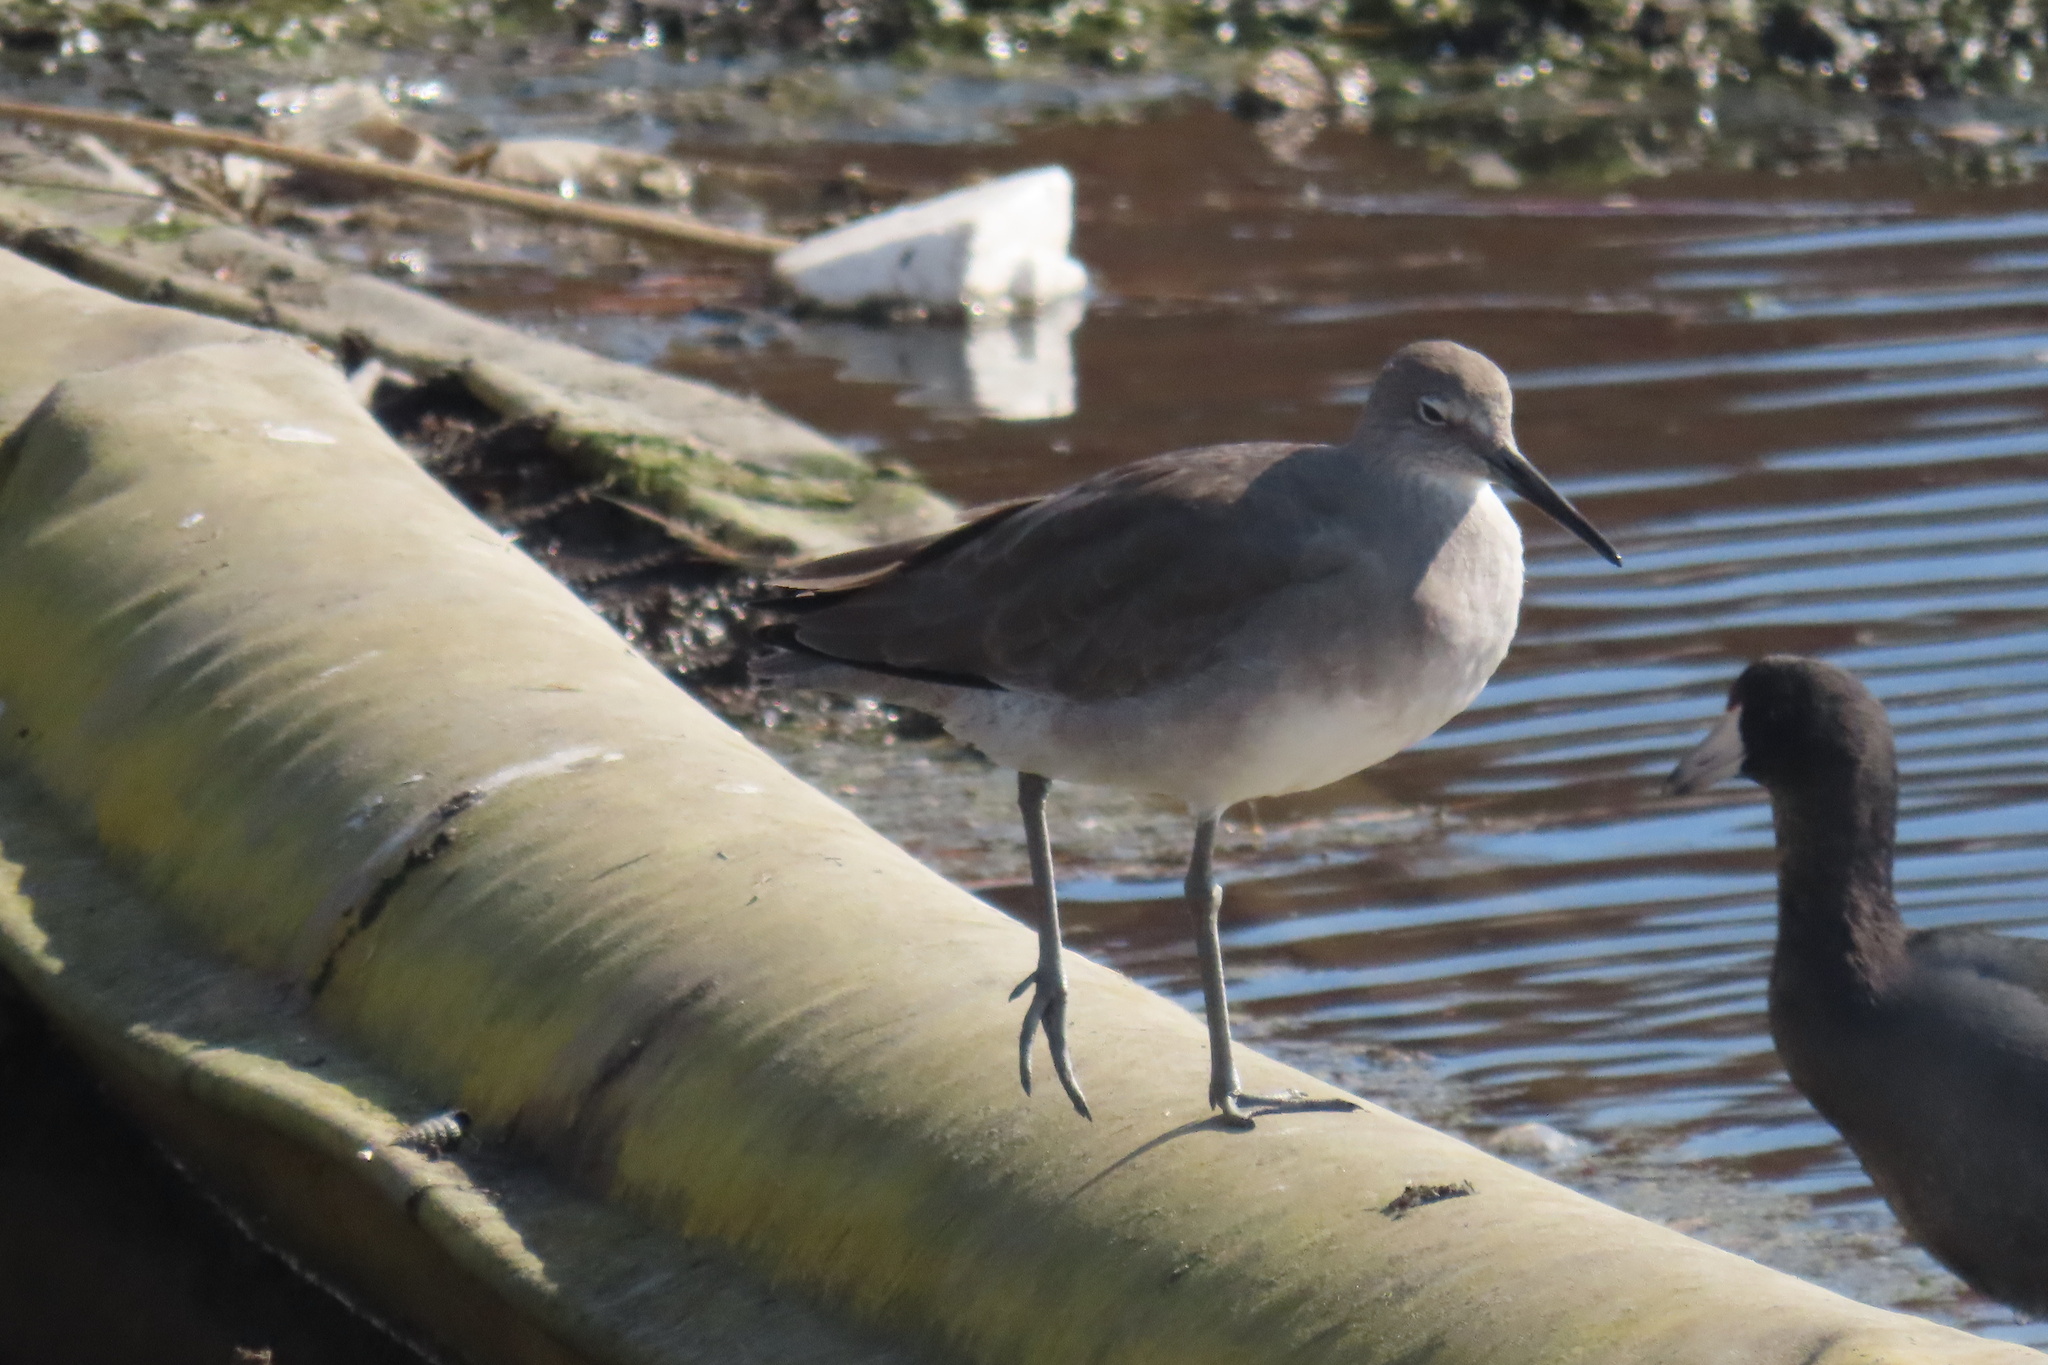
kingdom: Animalia
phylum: Chordata
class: Aves
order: Charadriiformes
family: Scolopacidae
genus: Tringa
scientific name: Tringa semipalmata
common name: Willet
